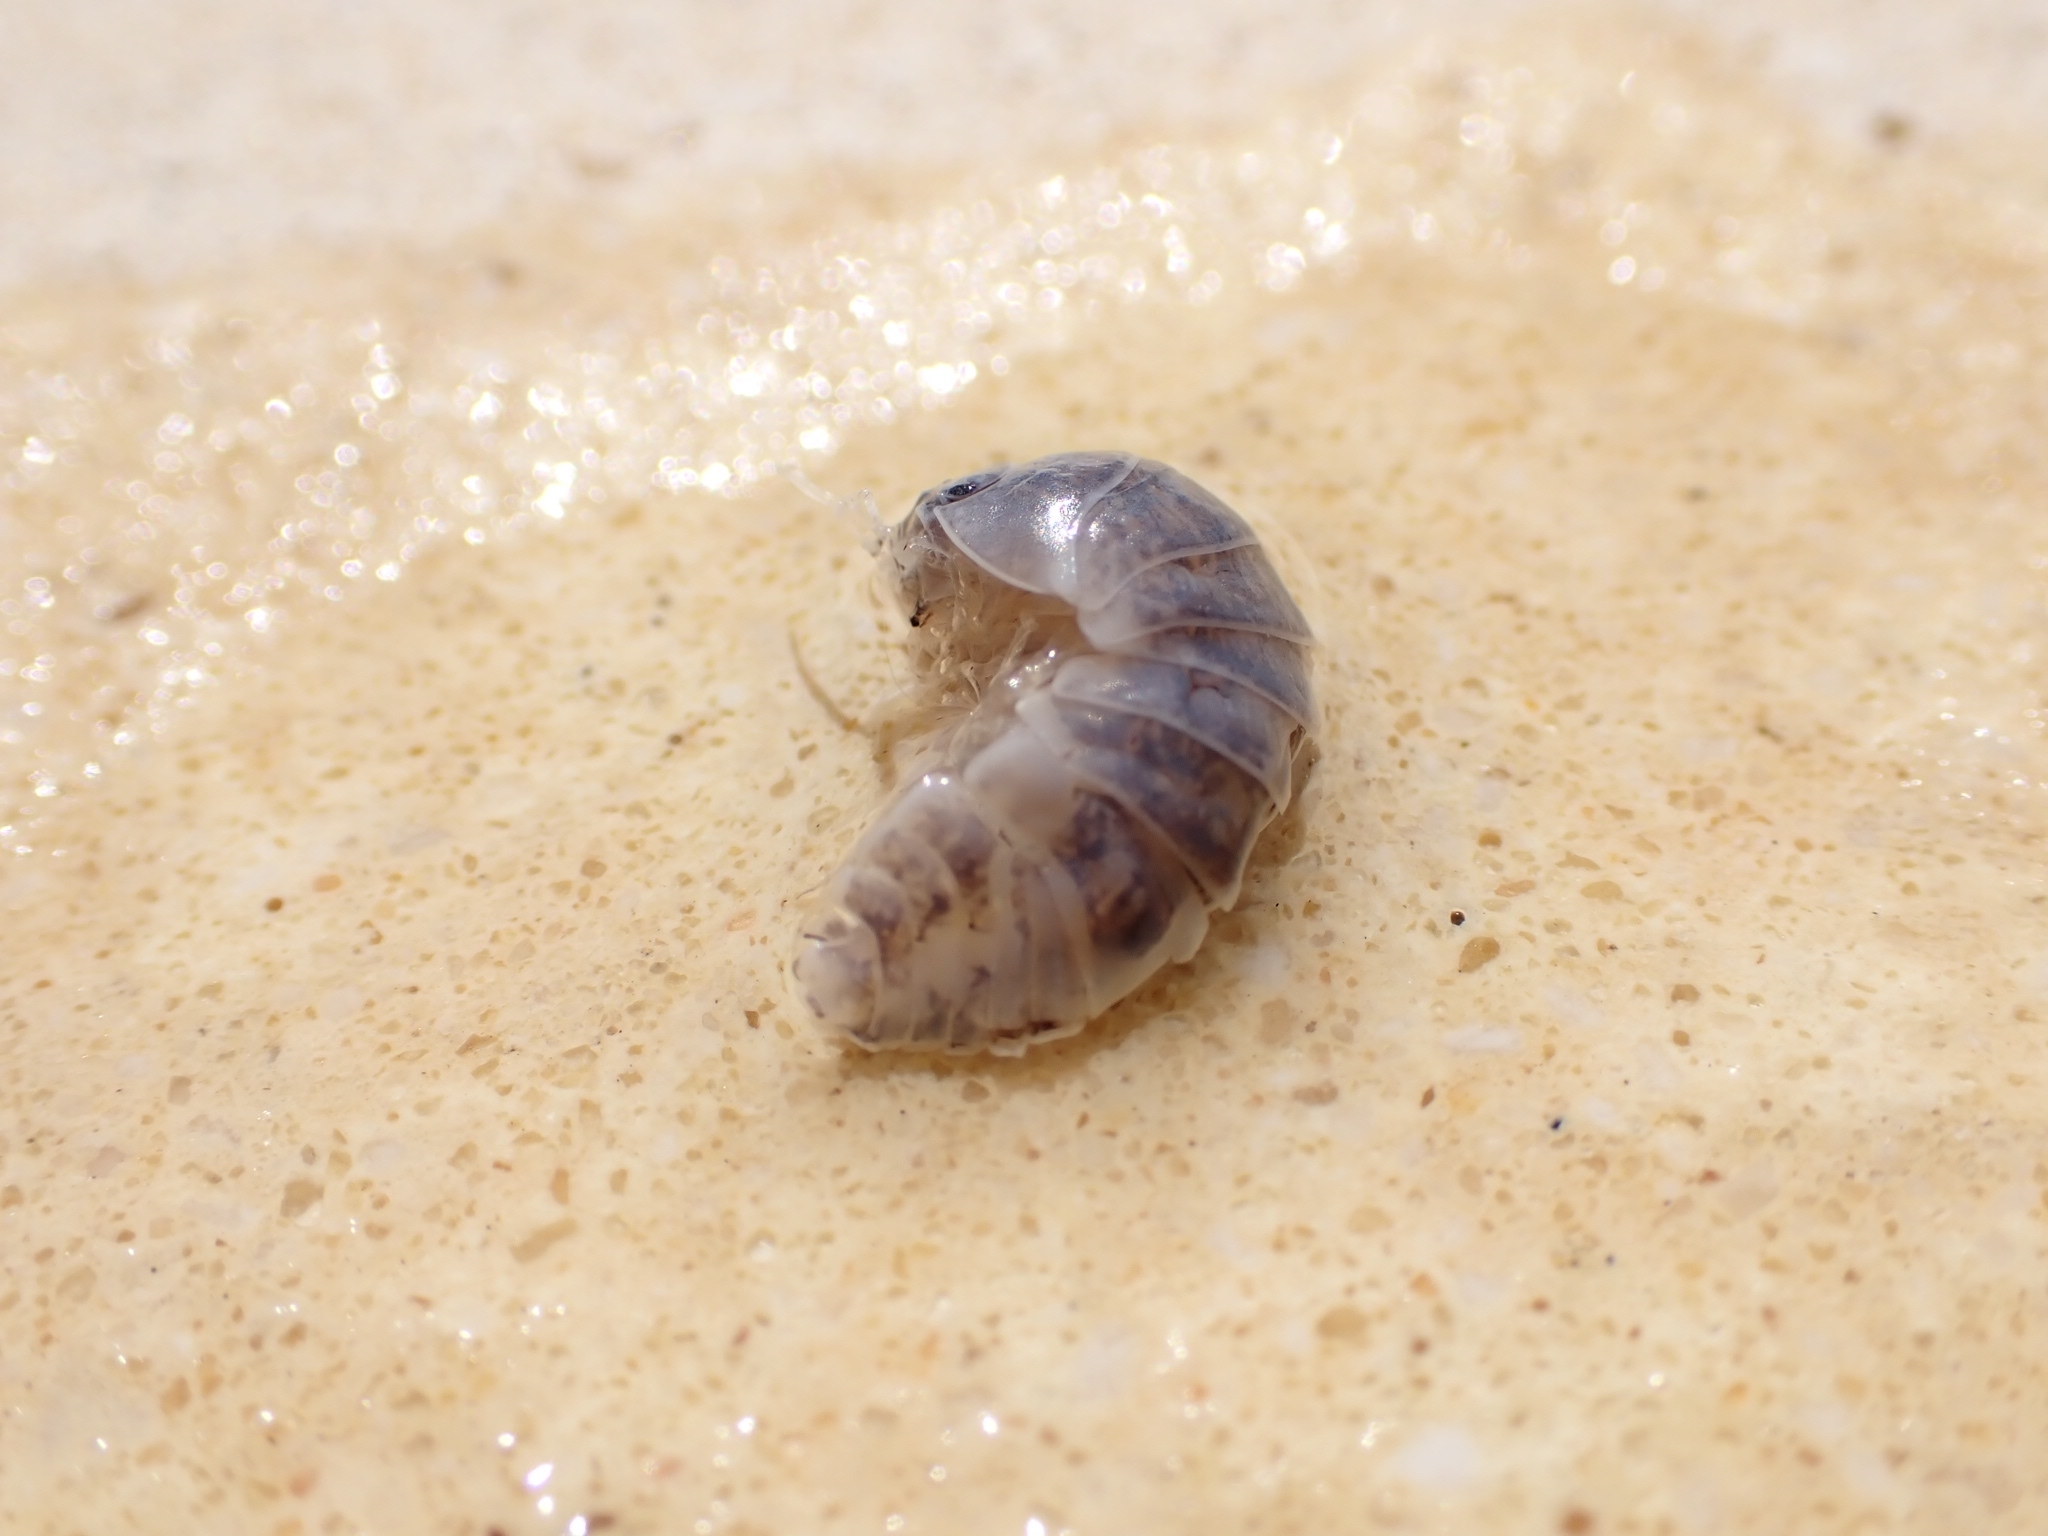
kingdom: Animalia
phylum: Arthropoda
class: Malacostraca
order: Isopoda
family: Armadillidiidae
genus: Armadillidium
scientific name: Armadillidium vulgare
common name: Common pill woodlouse
